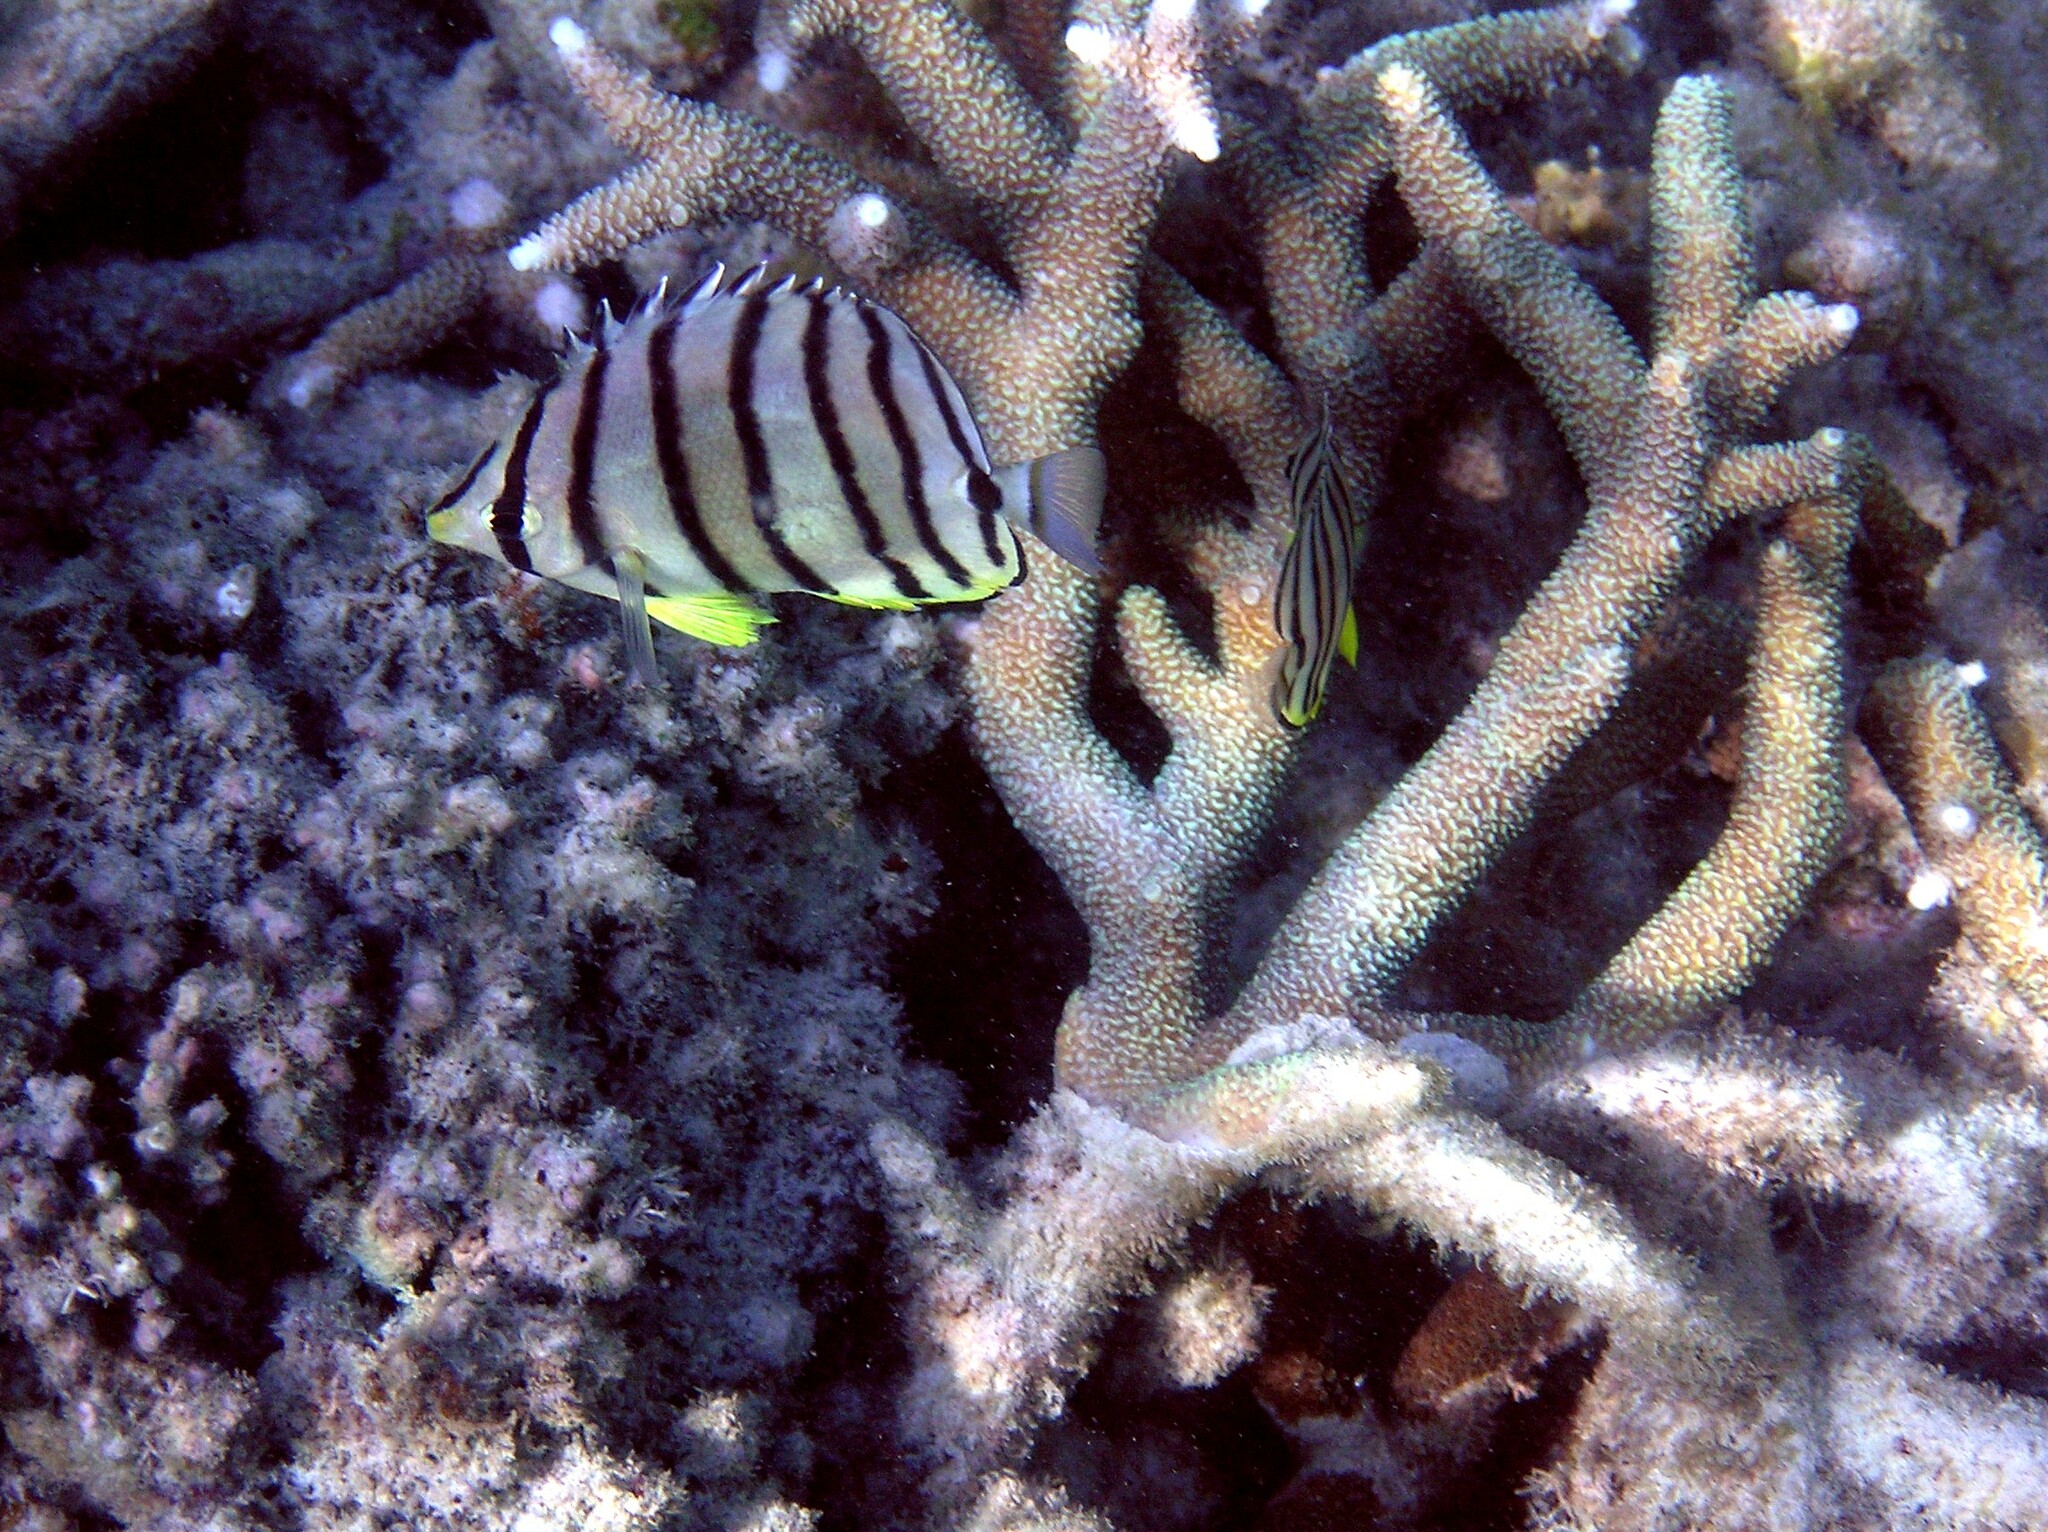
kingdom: Animalia
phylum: Chordata
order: Perciformes
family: Chaetodontidae
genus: Chaetodon
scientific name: Chaetodon octofasciatus
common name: Eightband butterflyfish
